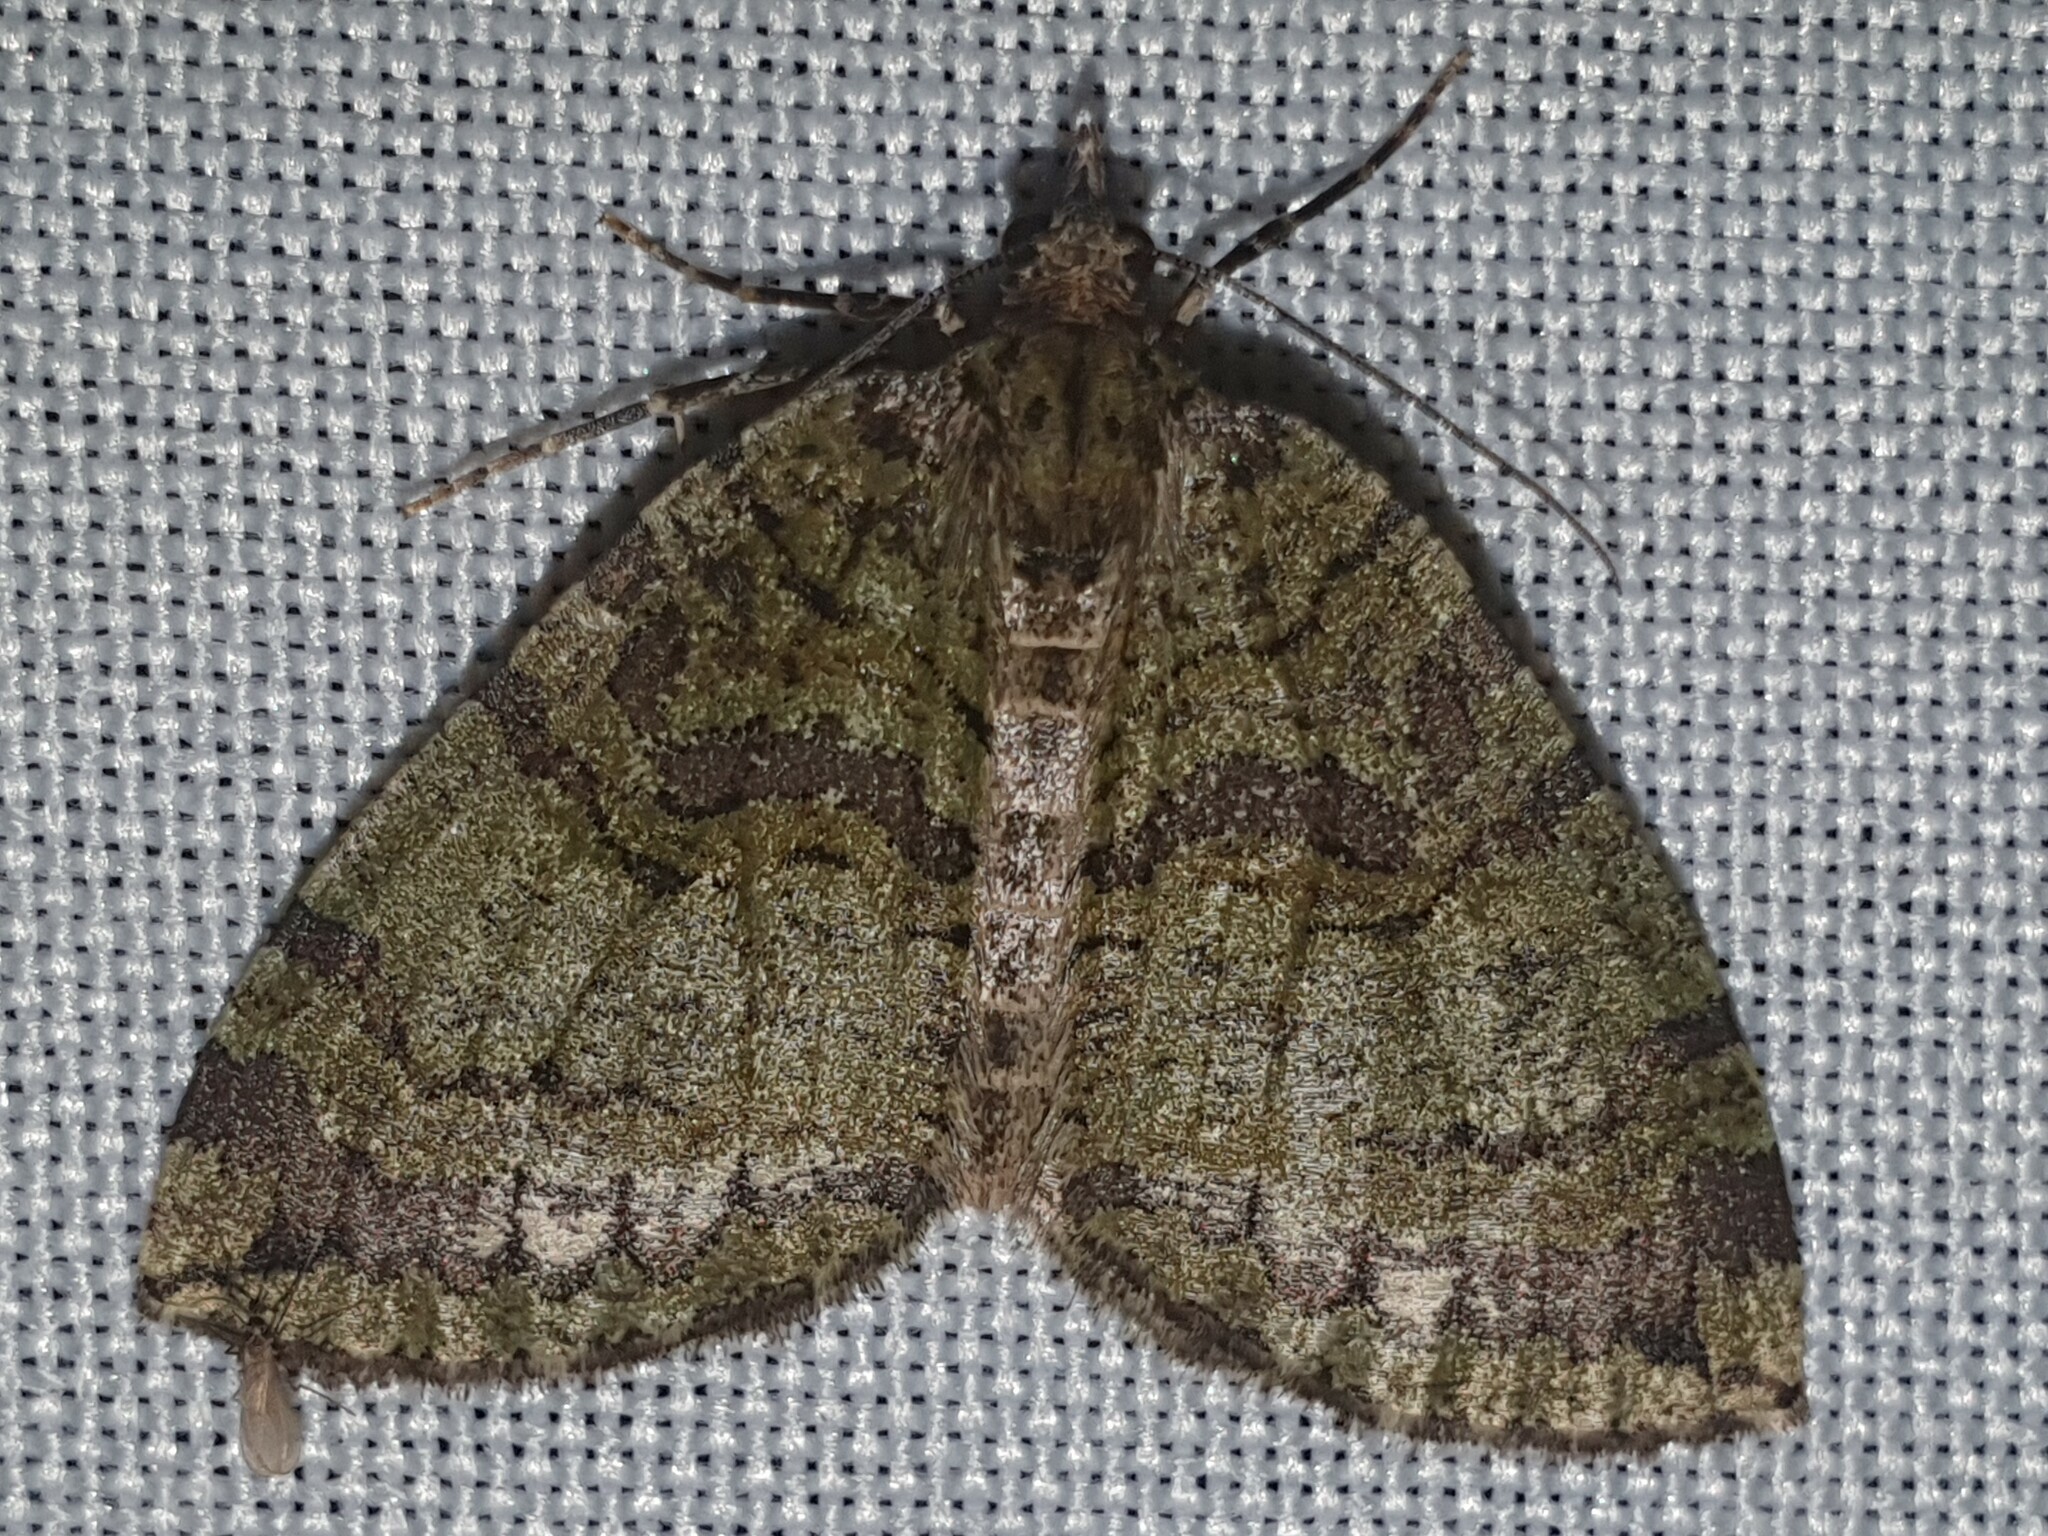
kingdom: Animalia
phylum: Arthropoda
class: Insecta
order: Lepidoptera
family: Geometridae
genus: Hydriomena
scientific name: Hydriomena furcata
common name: July highflyer
